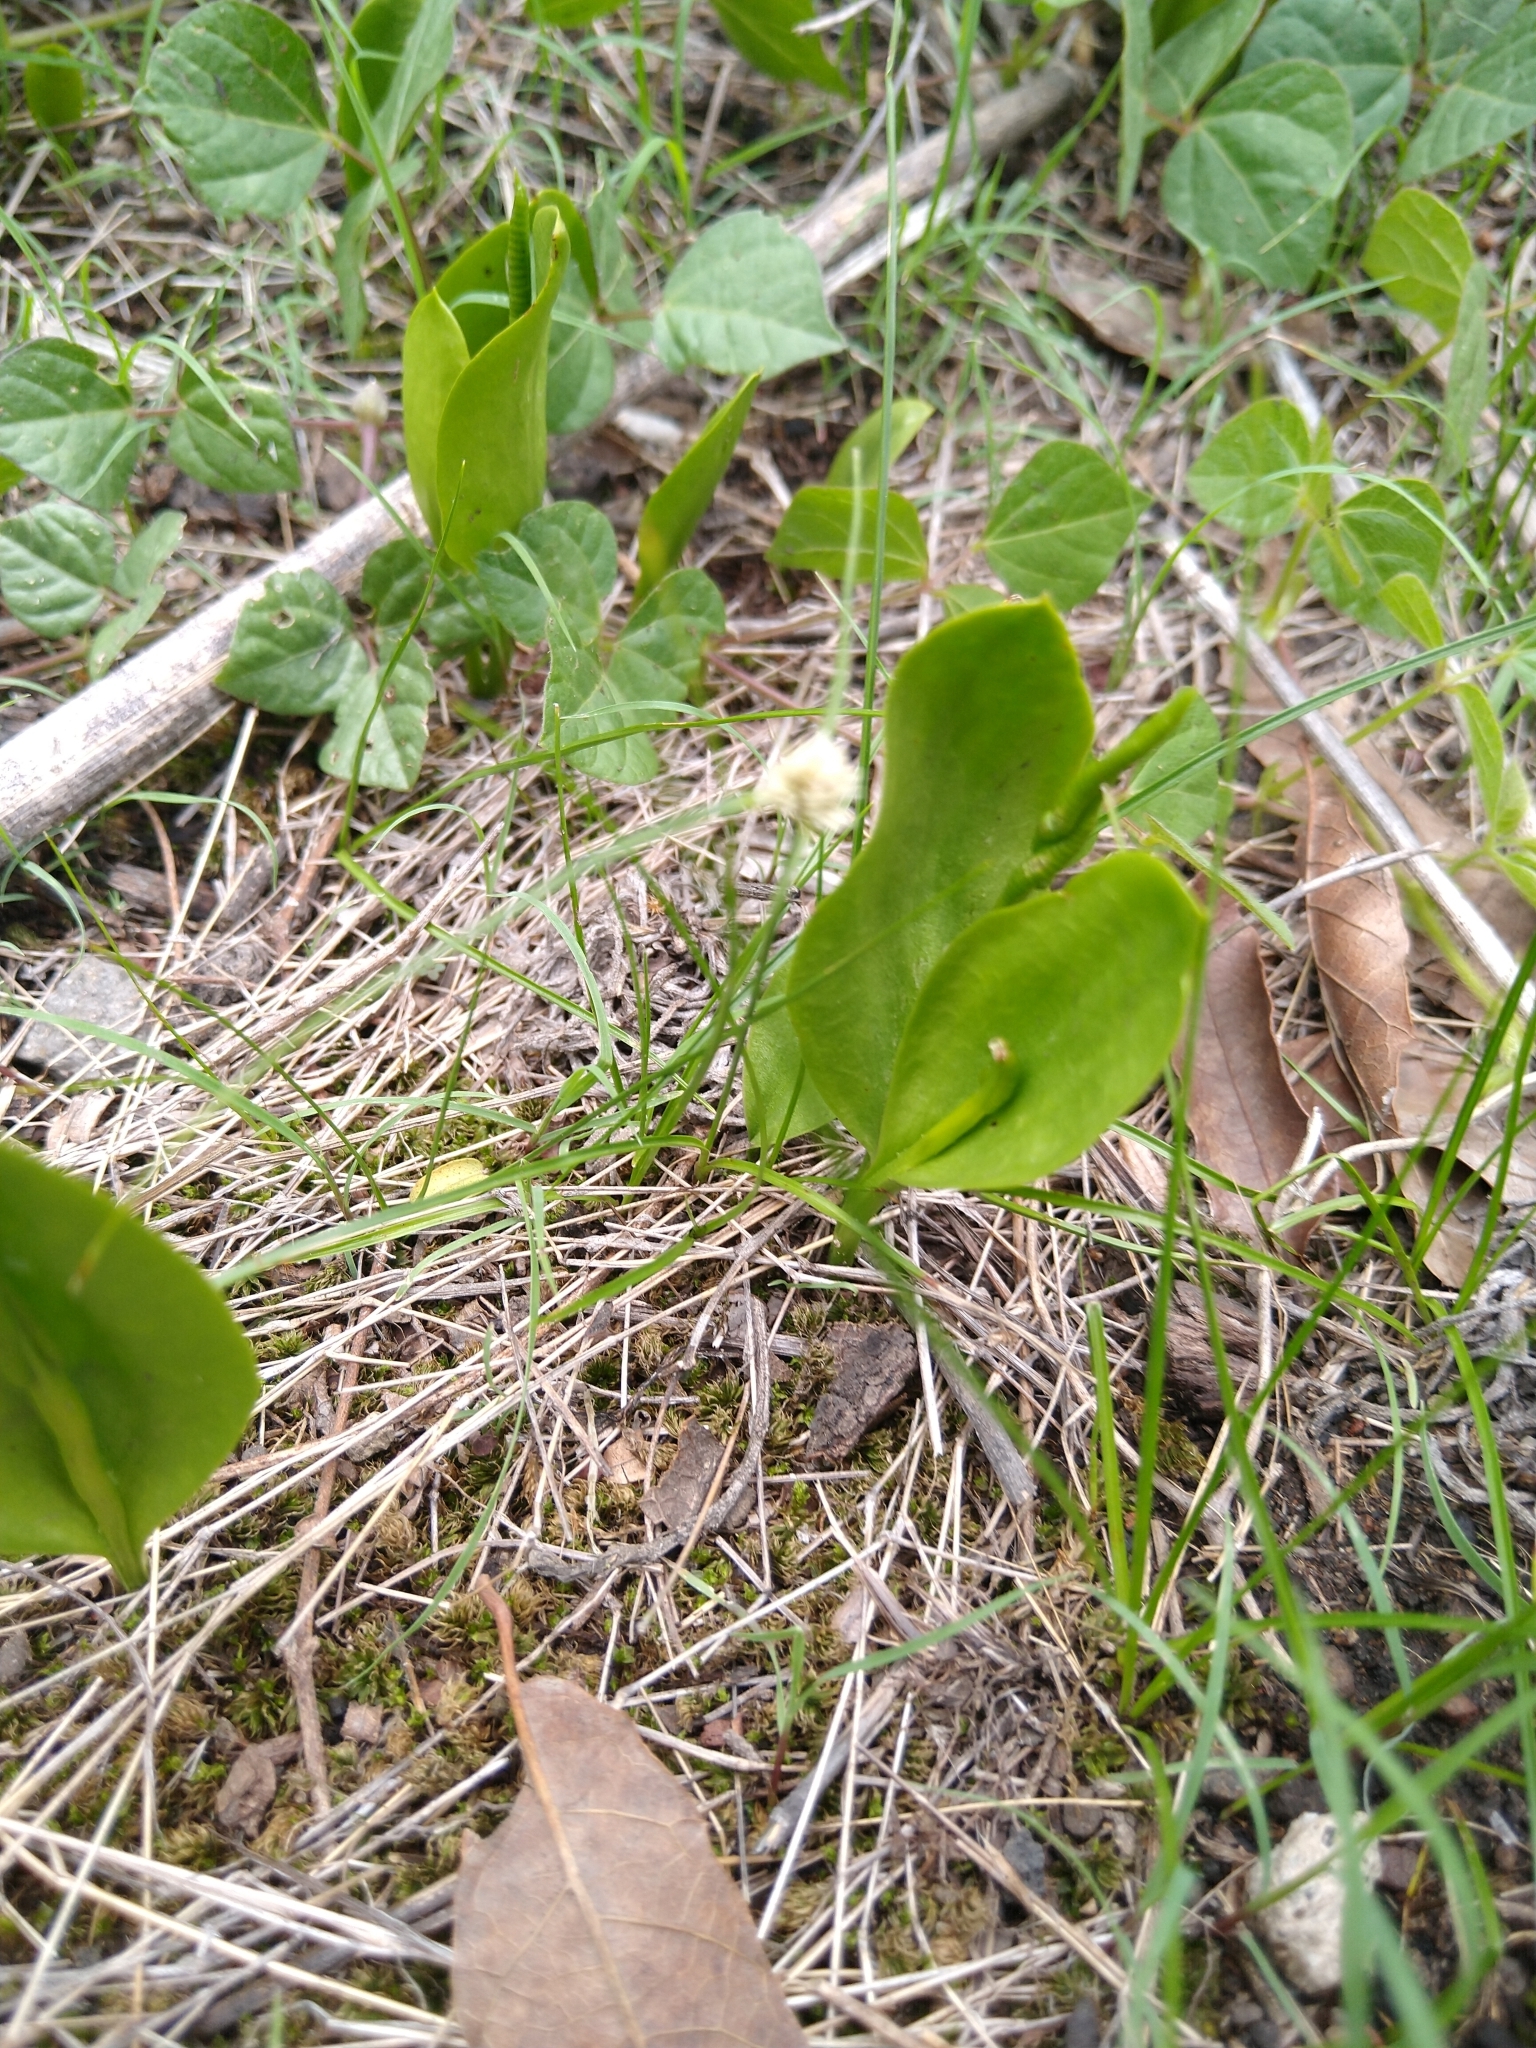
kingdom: Plantae
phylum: Tracheophyta
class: Polypodiopsida
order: Ophioglossales
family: Ophioglossaceae
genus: Ophioglossum
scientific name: Ophioglossum engelmannii
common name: Limestone adder's-tongue
